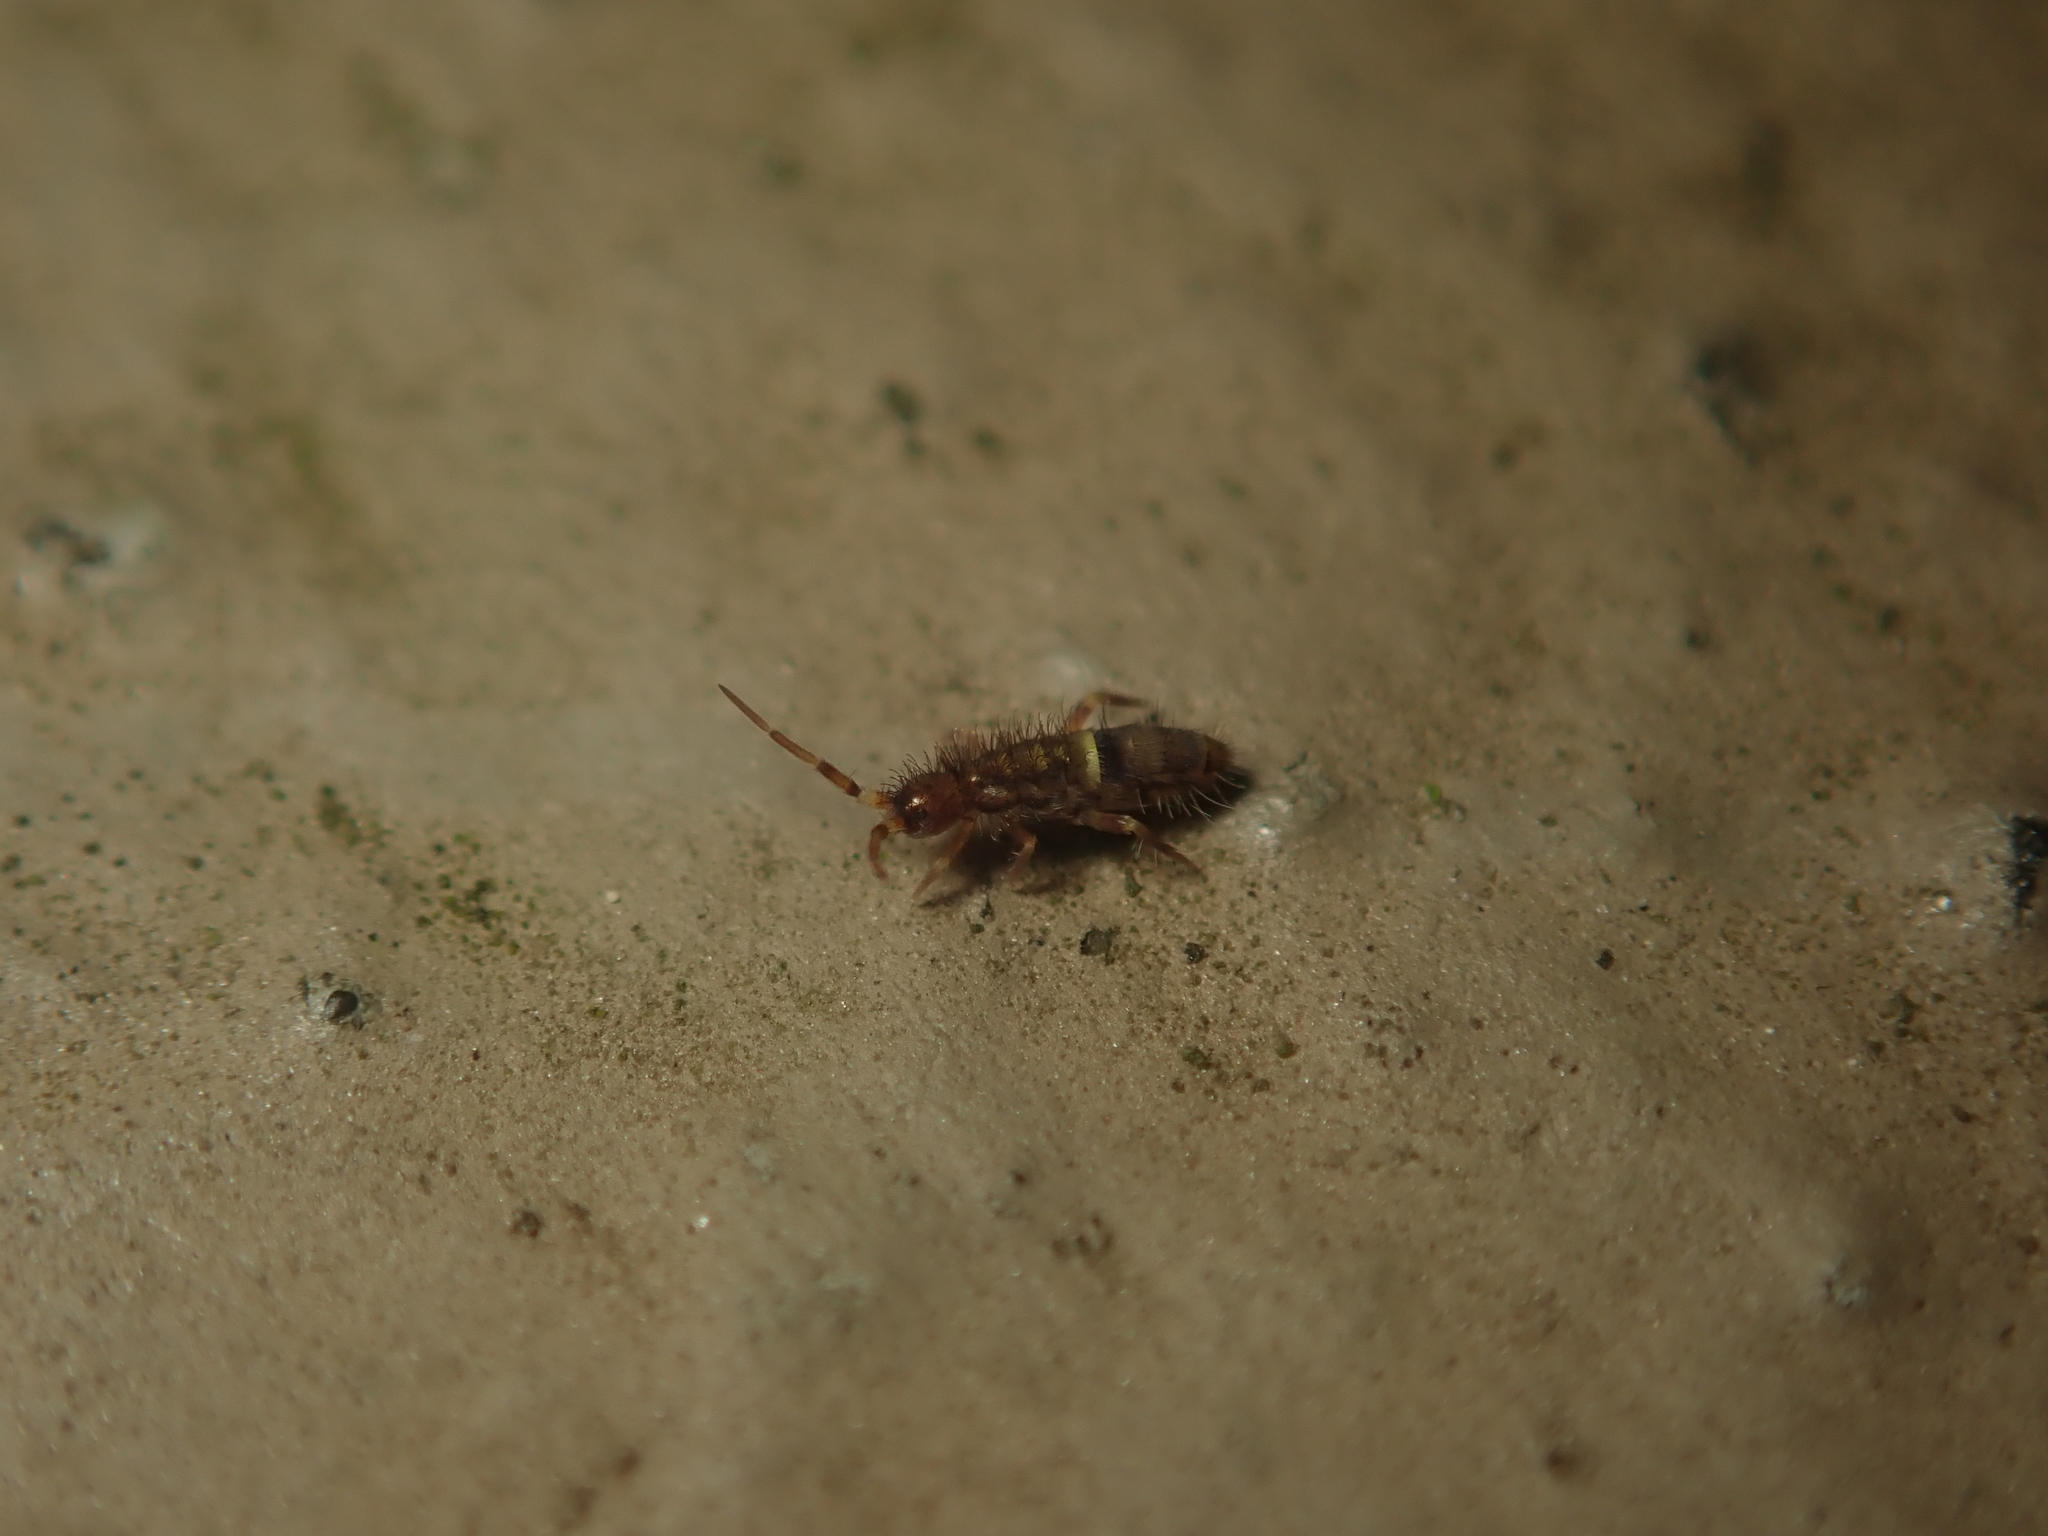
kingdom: Animalia
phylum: Arthropoda
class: Collembola
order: Entomobryomorpha
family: Orchesellidae
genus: Orchesella
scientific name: Orchesella cincta
